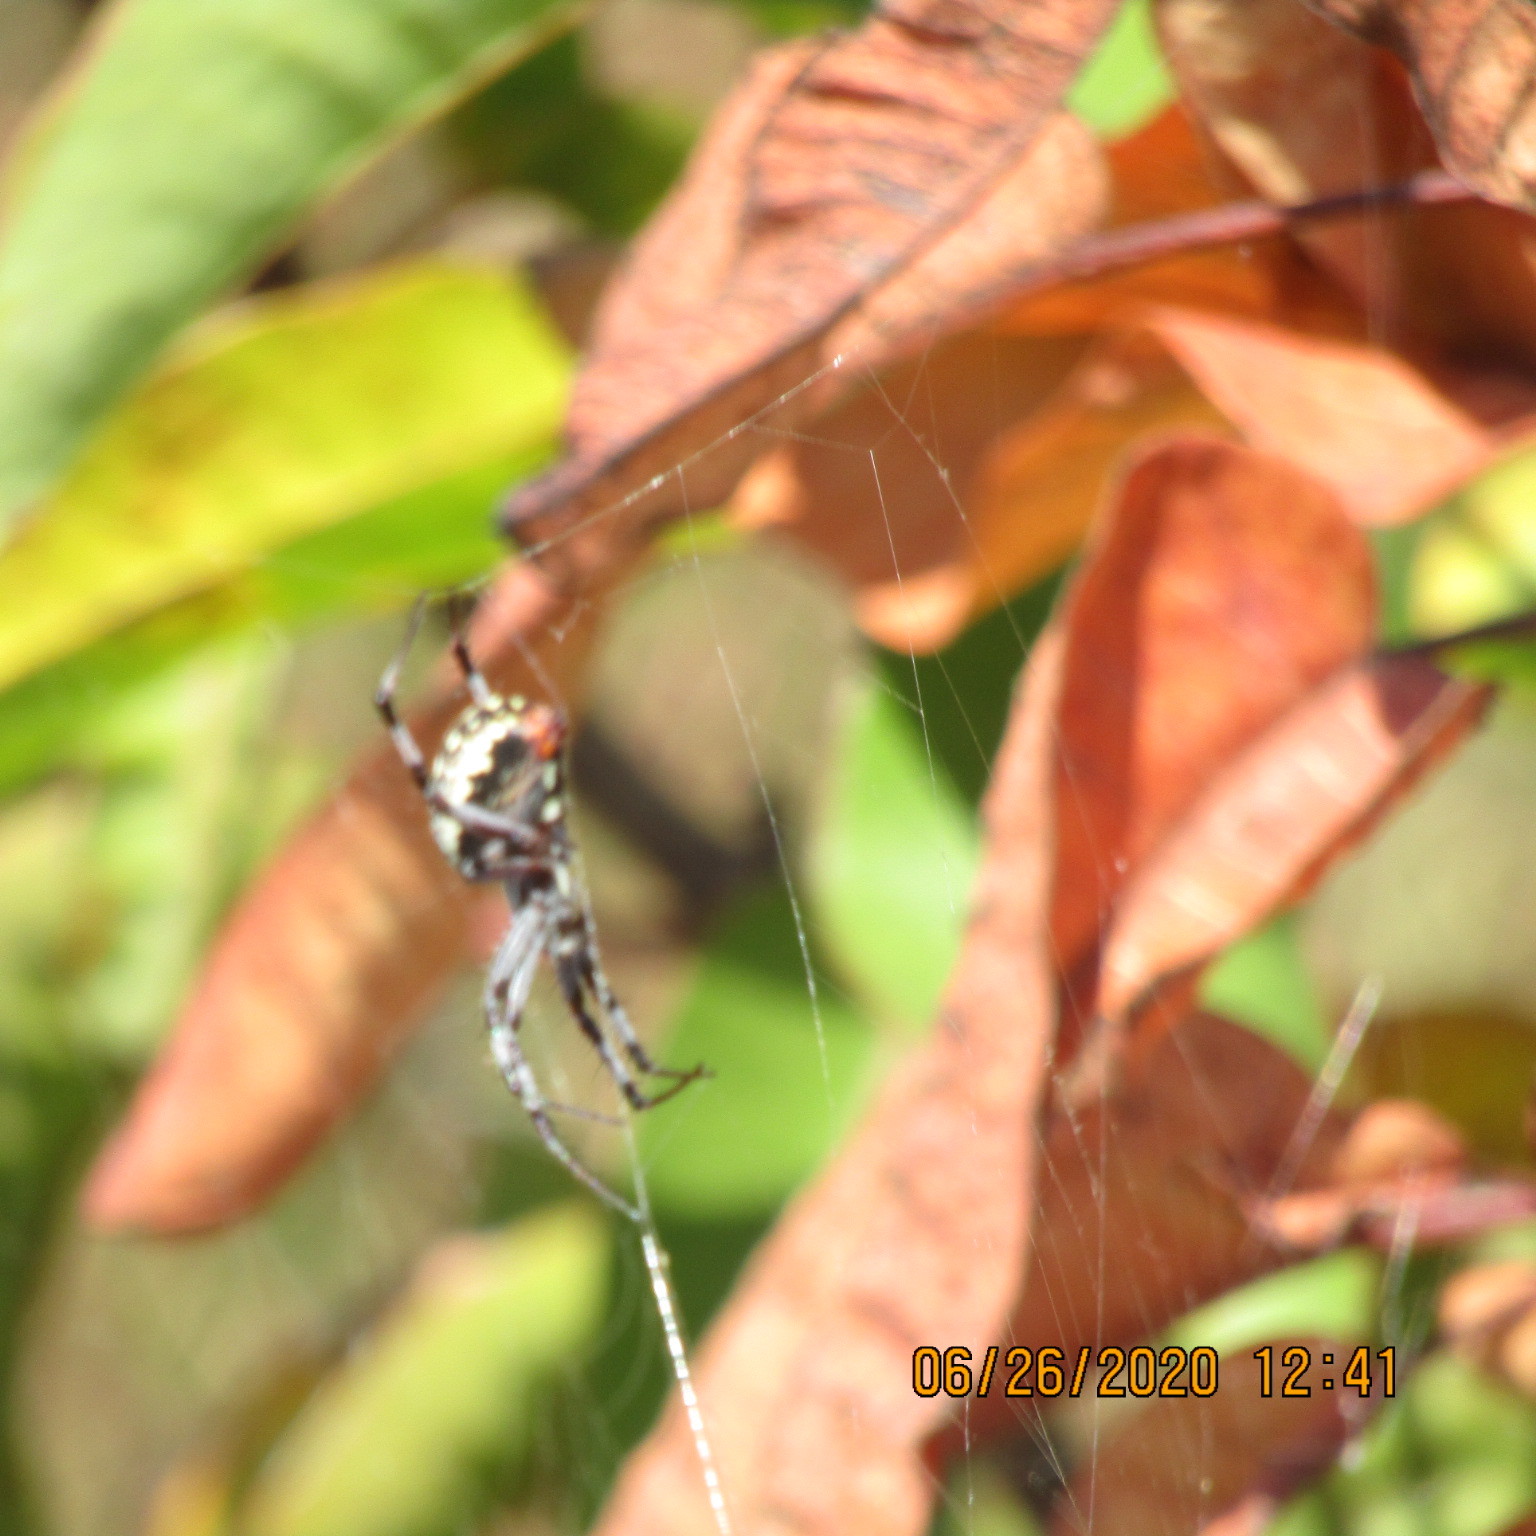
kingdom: Animalia
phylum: Arthropoda
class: Arachnida
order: Araneae
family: Araneidae
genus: Neoscona
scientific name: Neoscona oaxacensis
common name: Orb weavers
